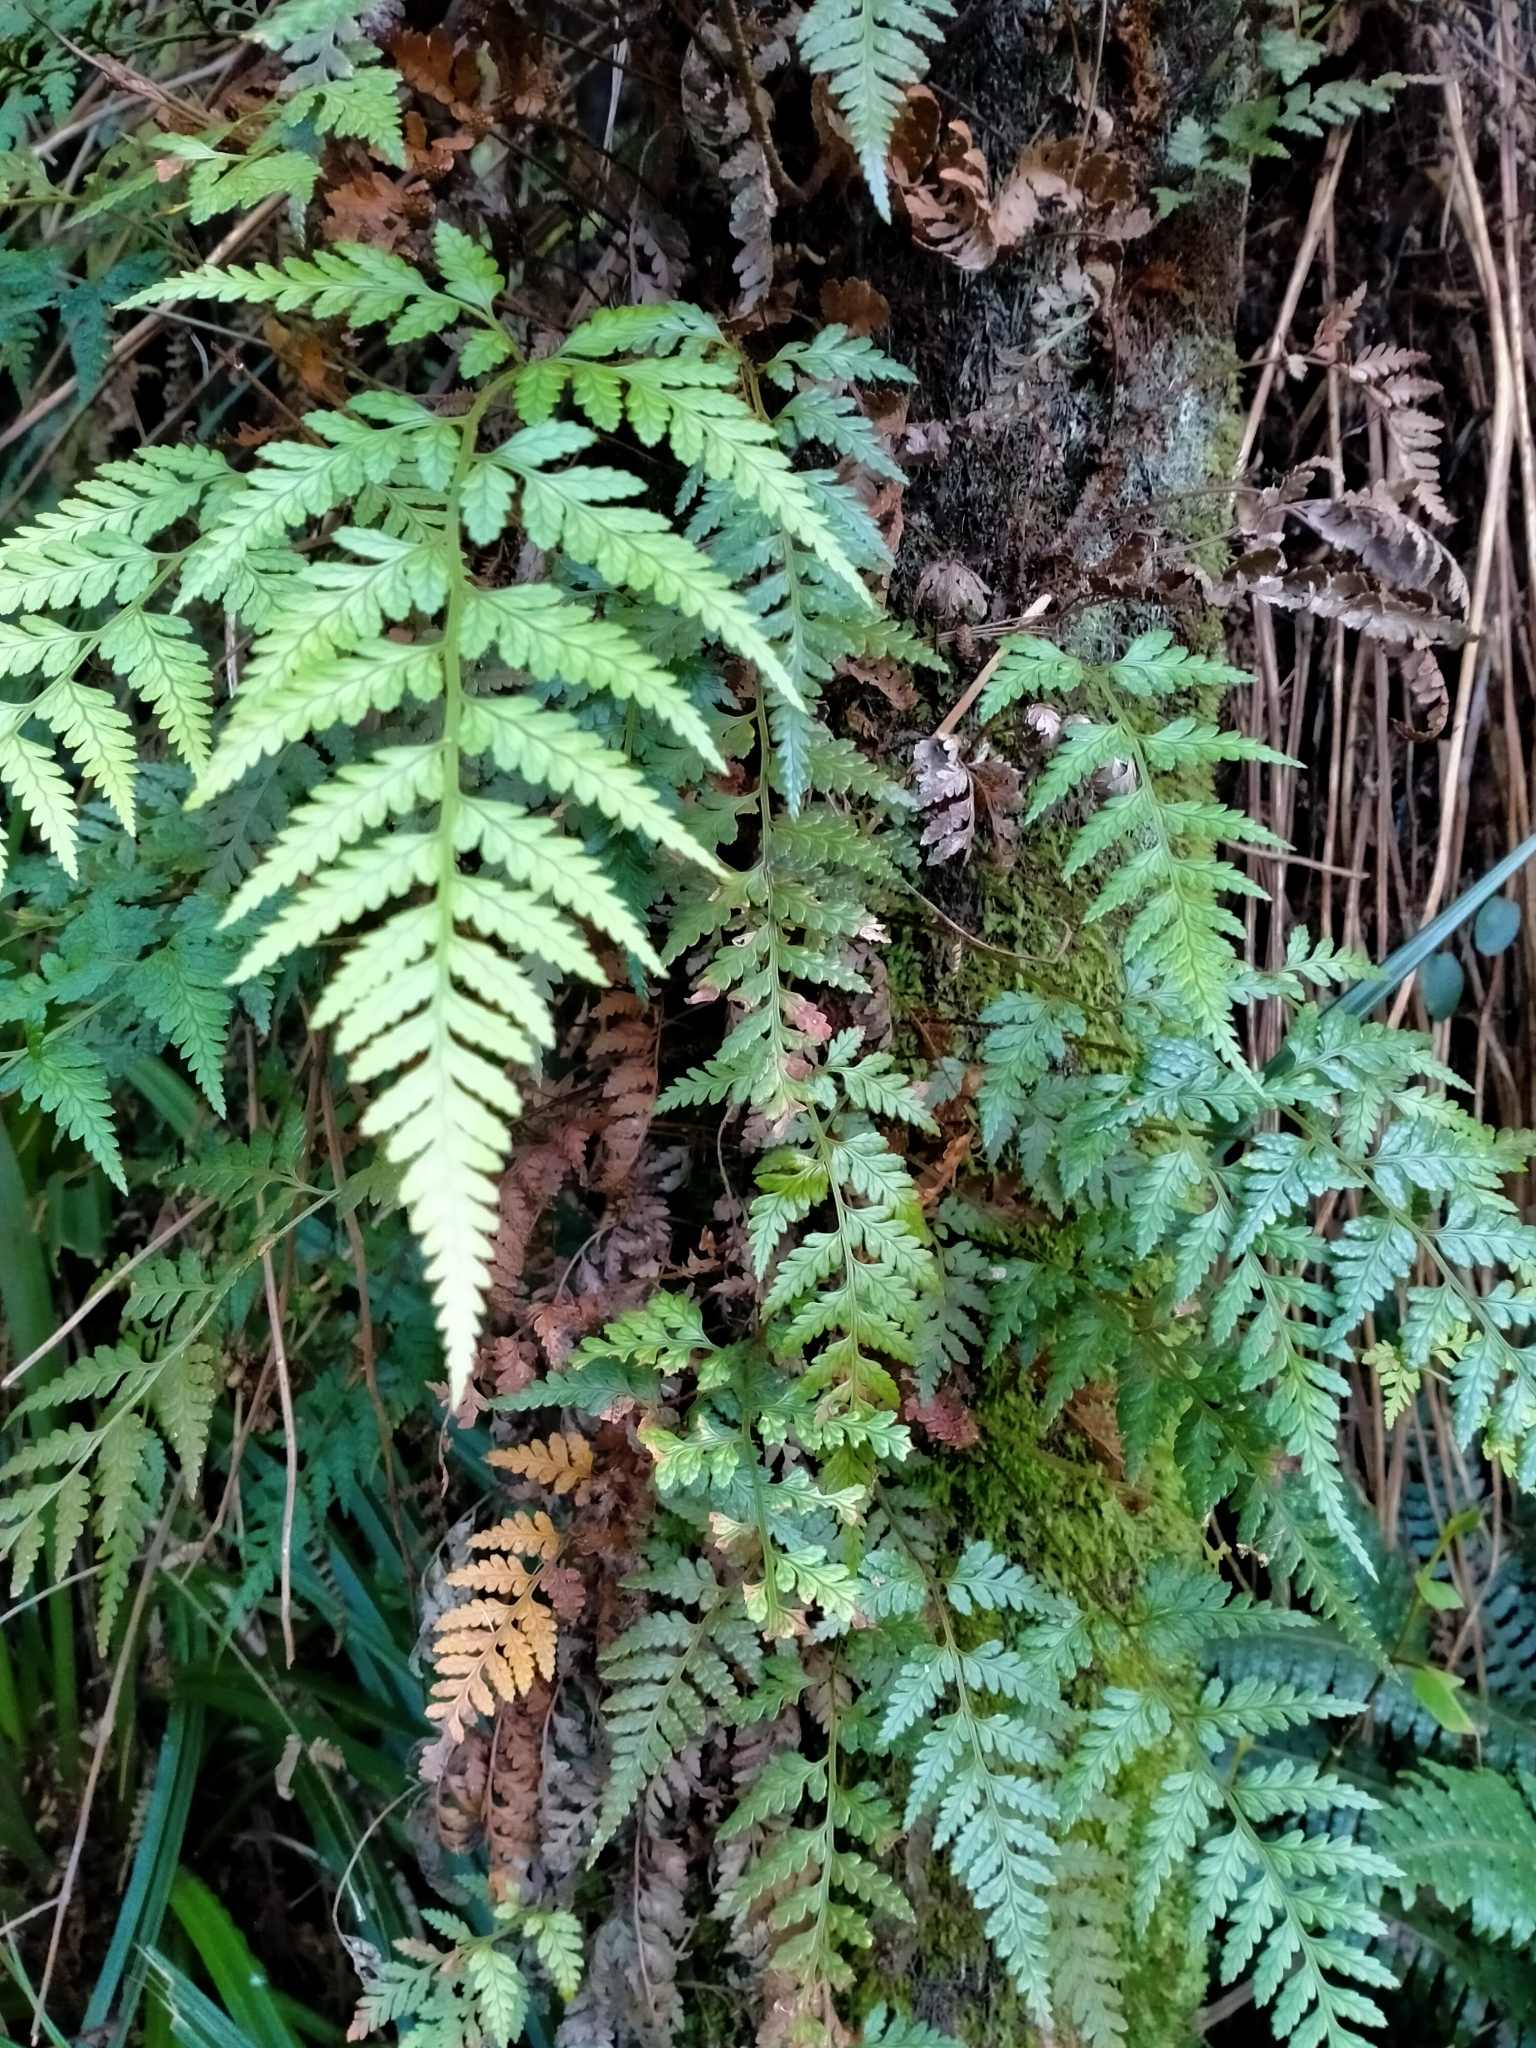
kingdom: Plantae
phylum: Tracheophyta
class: Polypodiopsida
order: Polypodiales
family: Dryopteridaceae
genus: Rumohra
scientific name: Rumohra adiantiformis
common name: Leather fern
